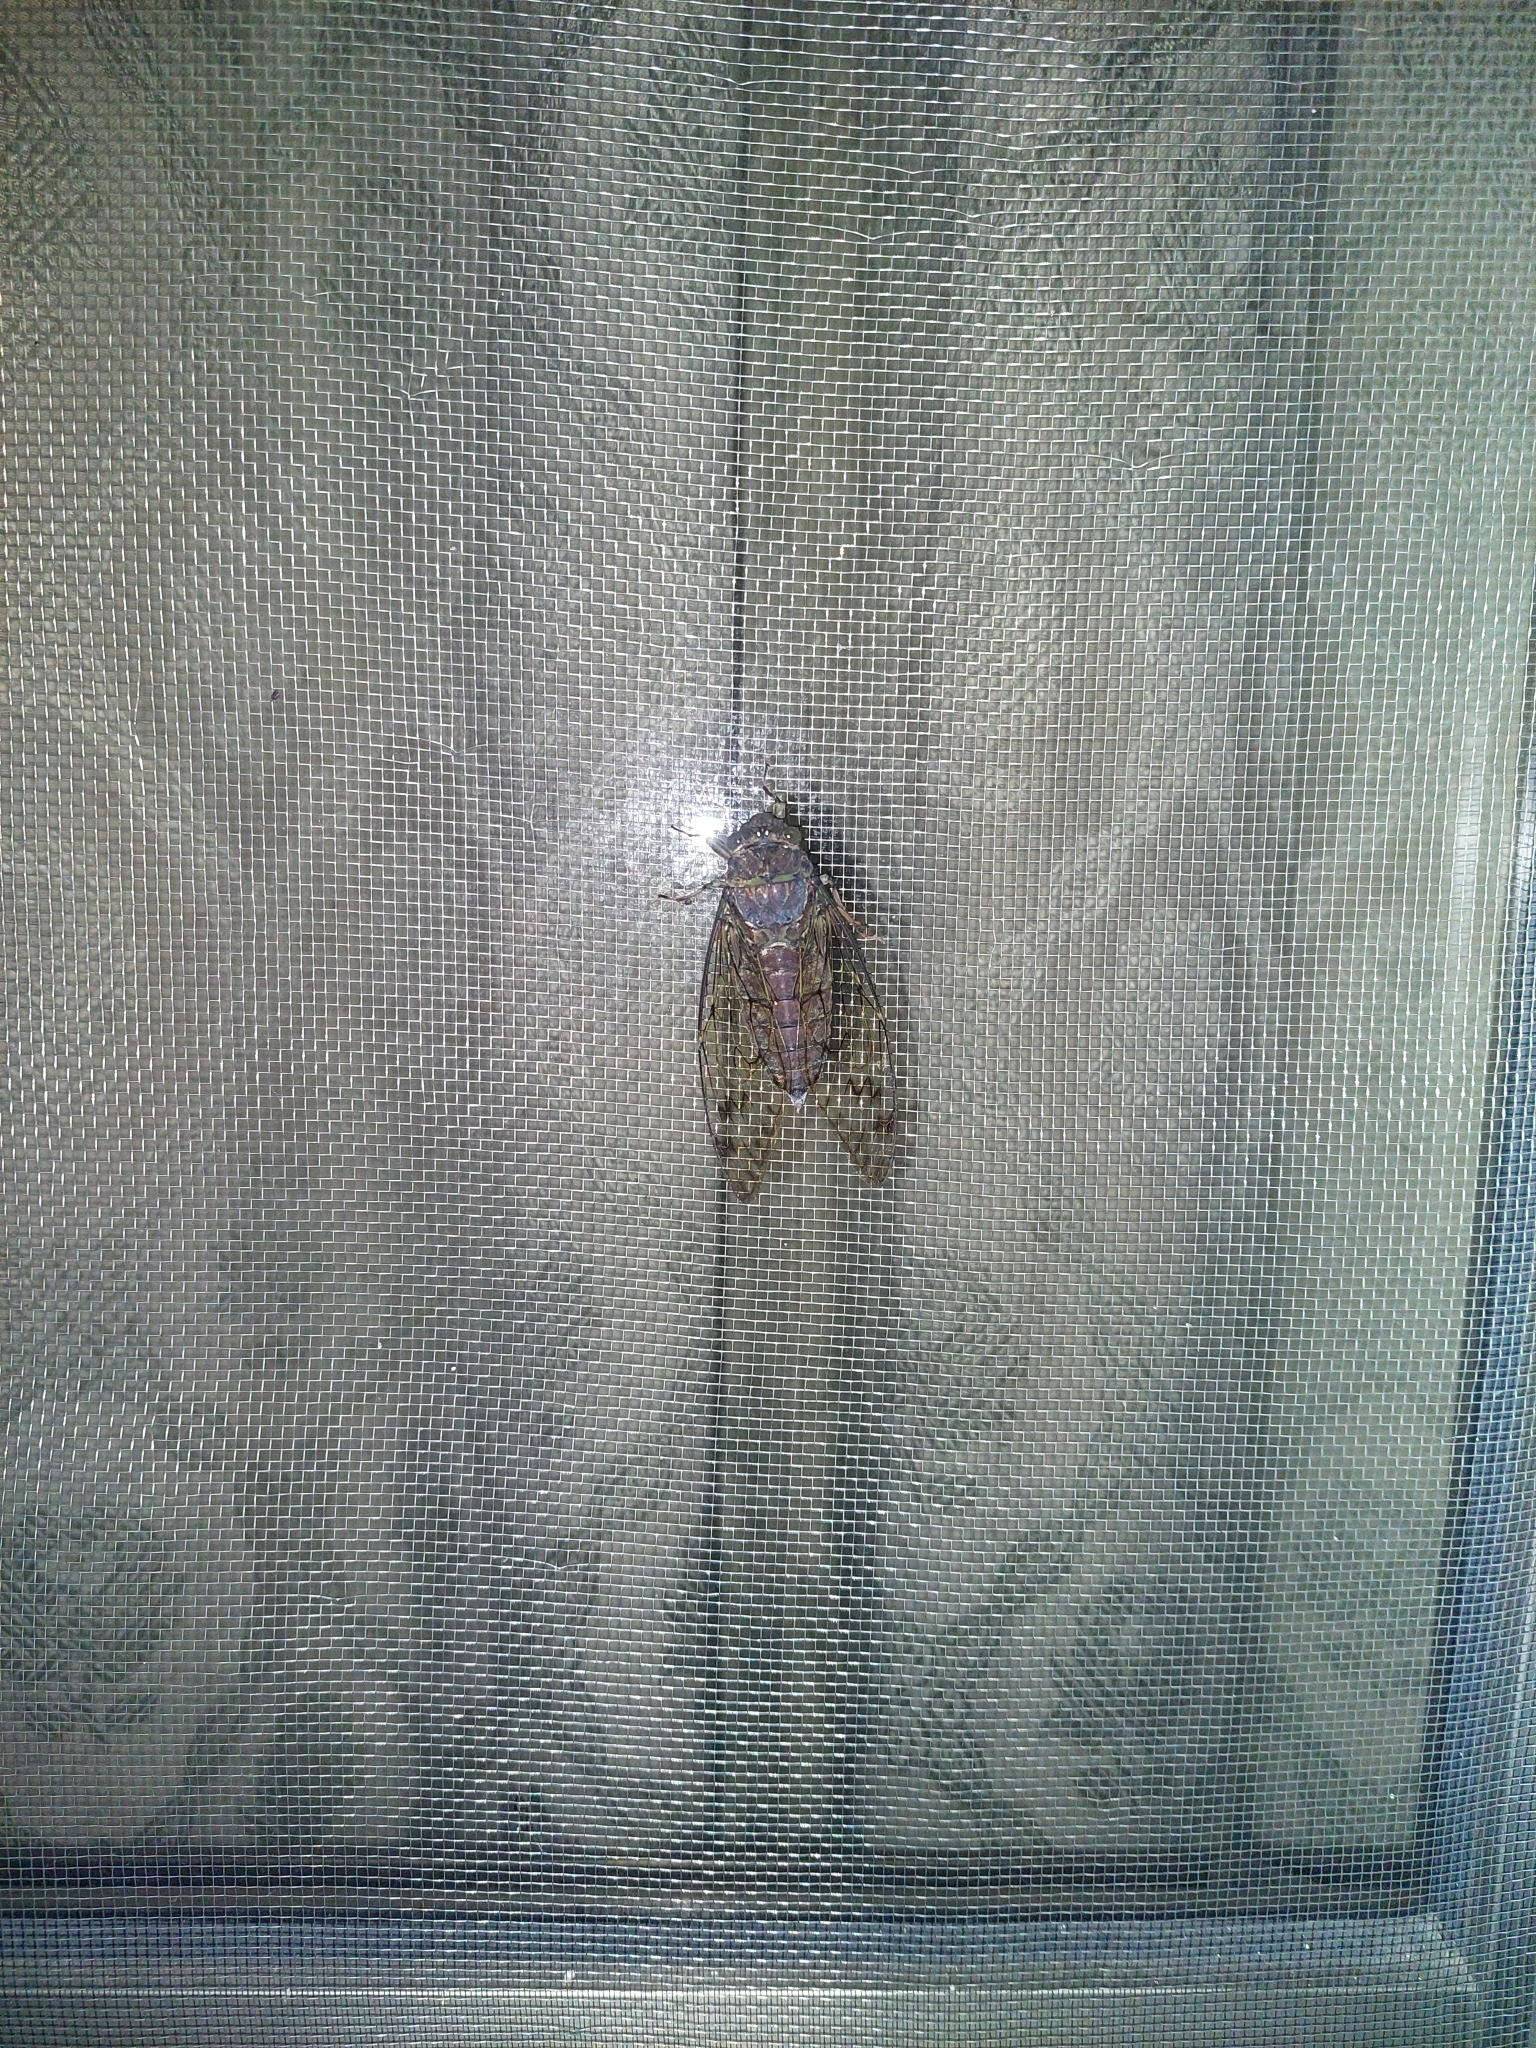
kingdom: Animalia
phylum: Arthropoda
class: Insecta
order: Hemiptera
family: Cicadidae
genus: Pomponia
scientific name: Pomponia yayeyamana
